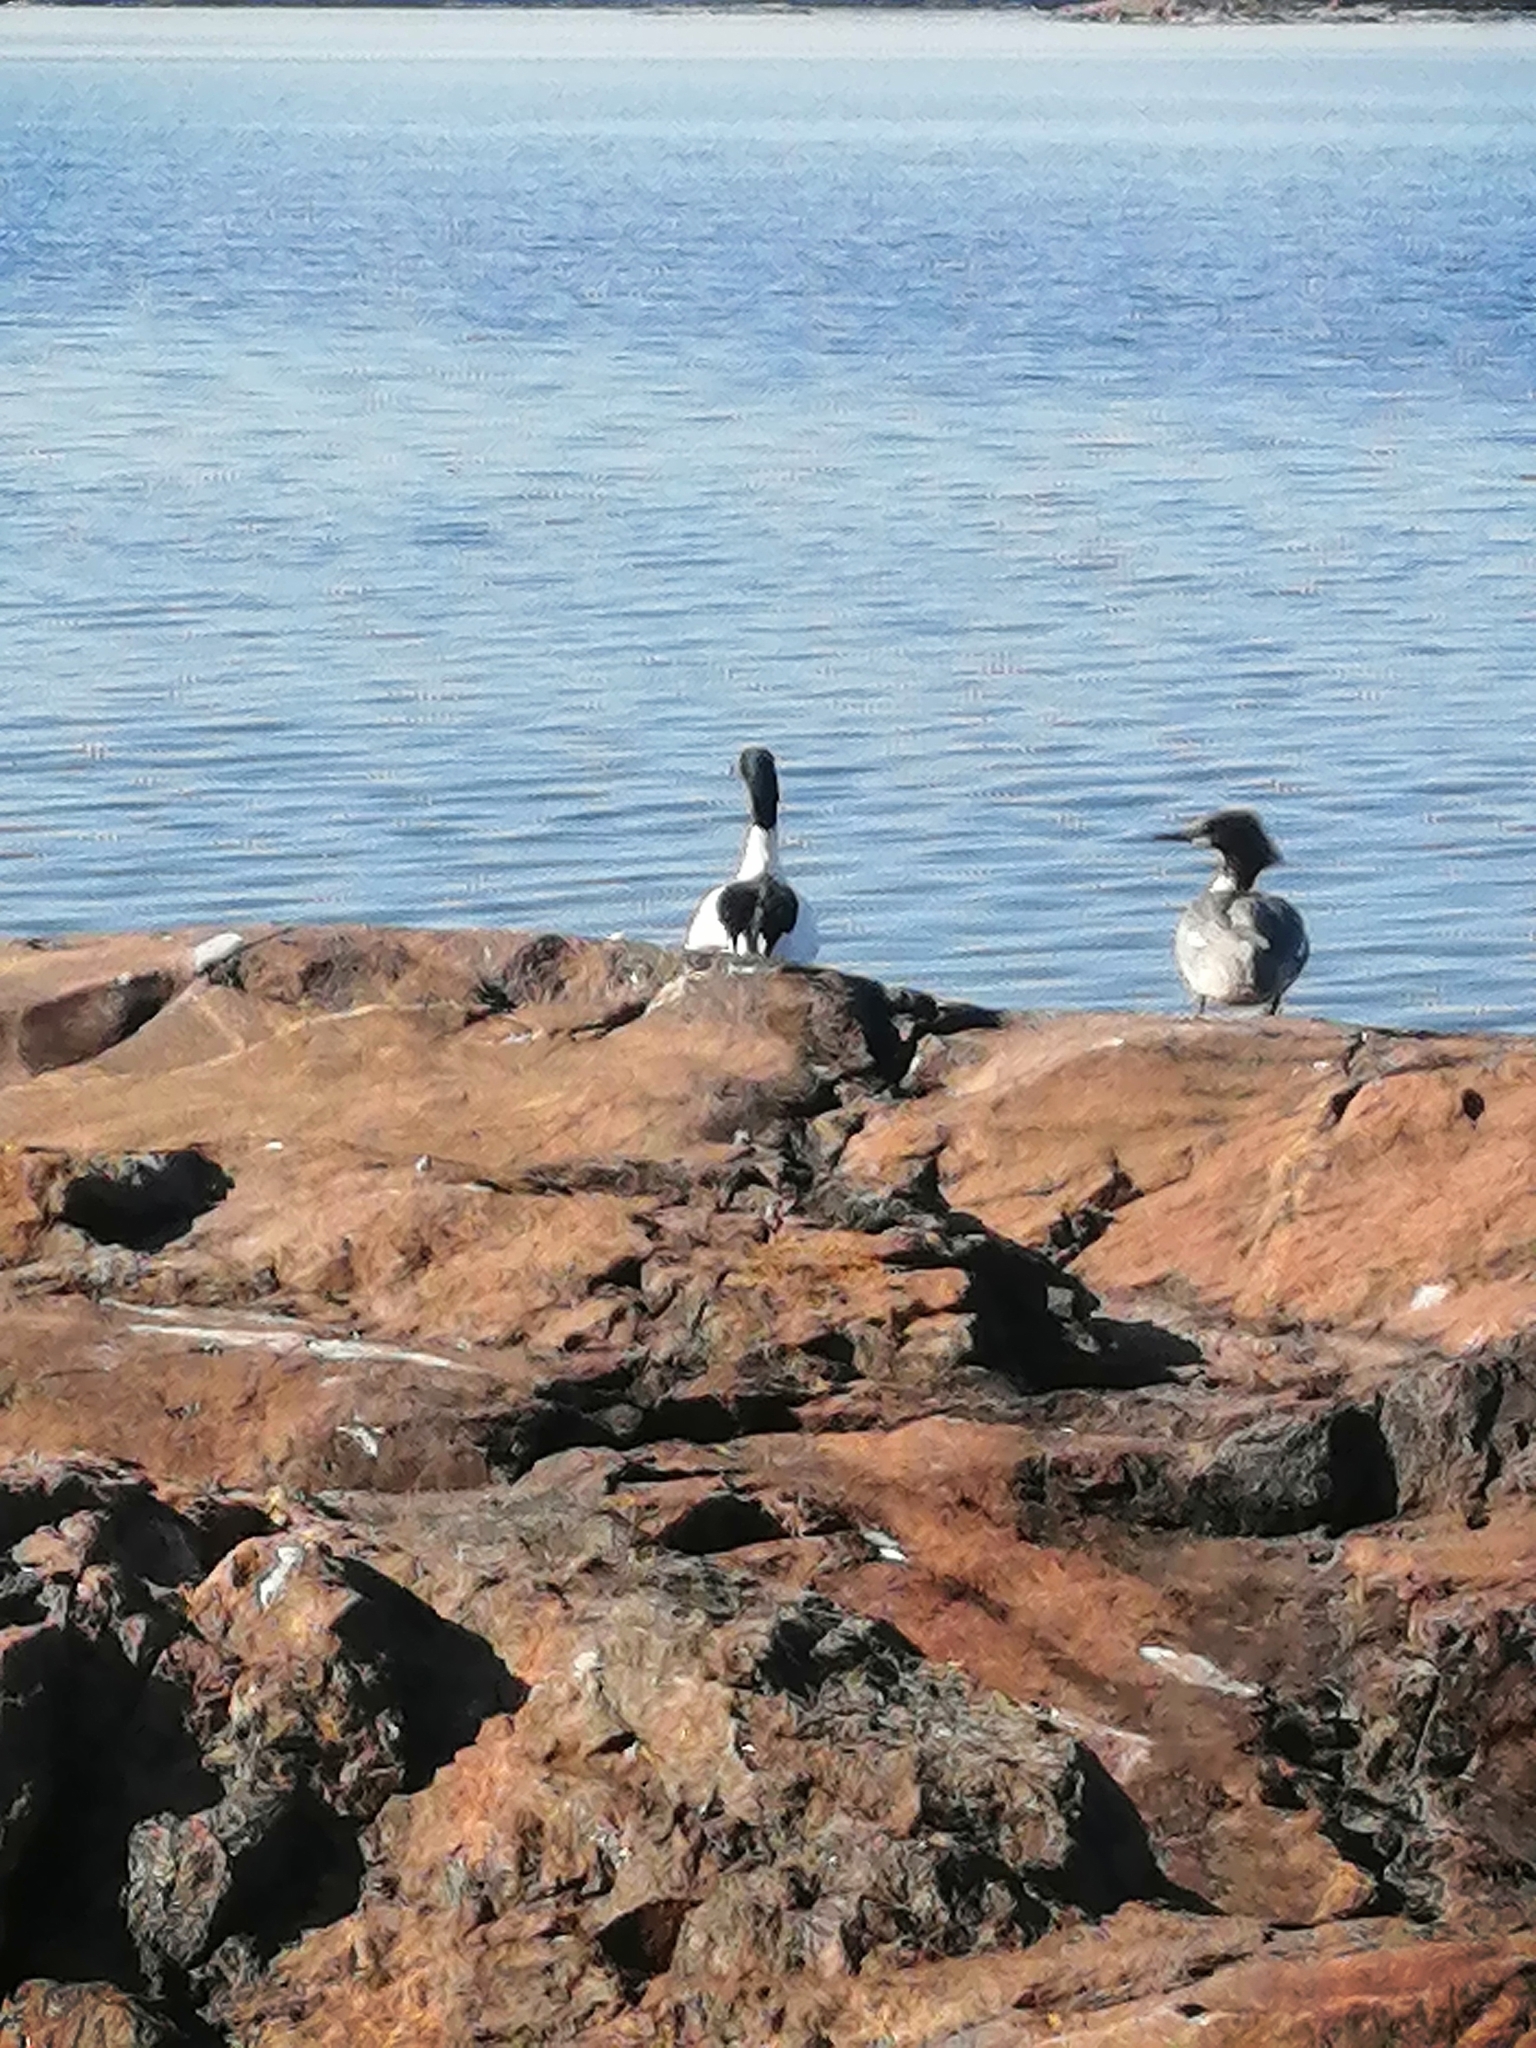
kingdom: Animalia
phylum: Chordata
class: Aves
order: Anseriformes
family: Anatidae
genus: Mergus
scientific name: Mergus merganser
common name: Common merganser
